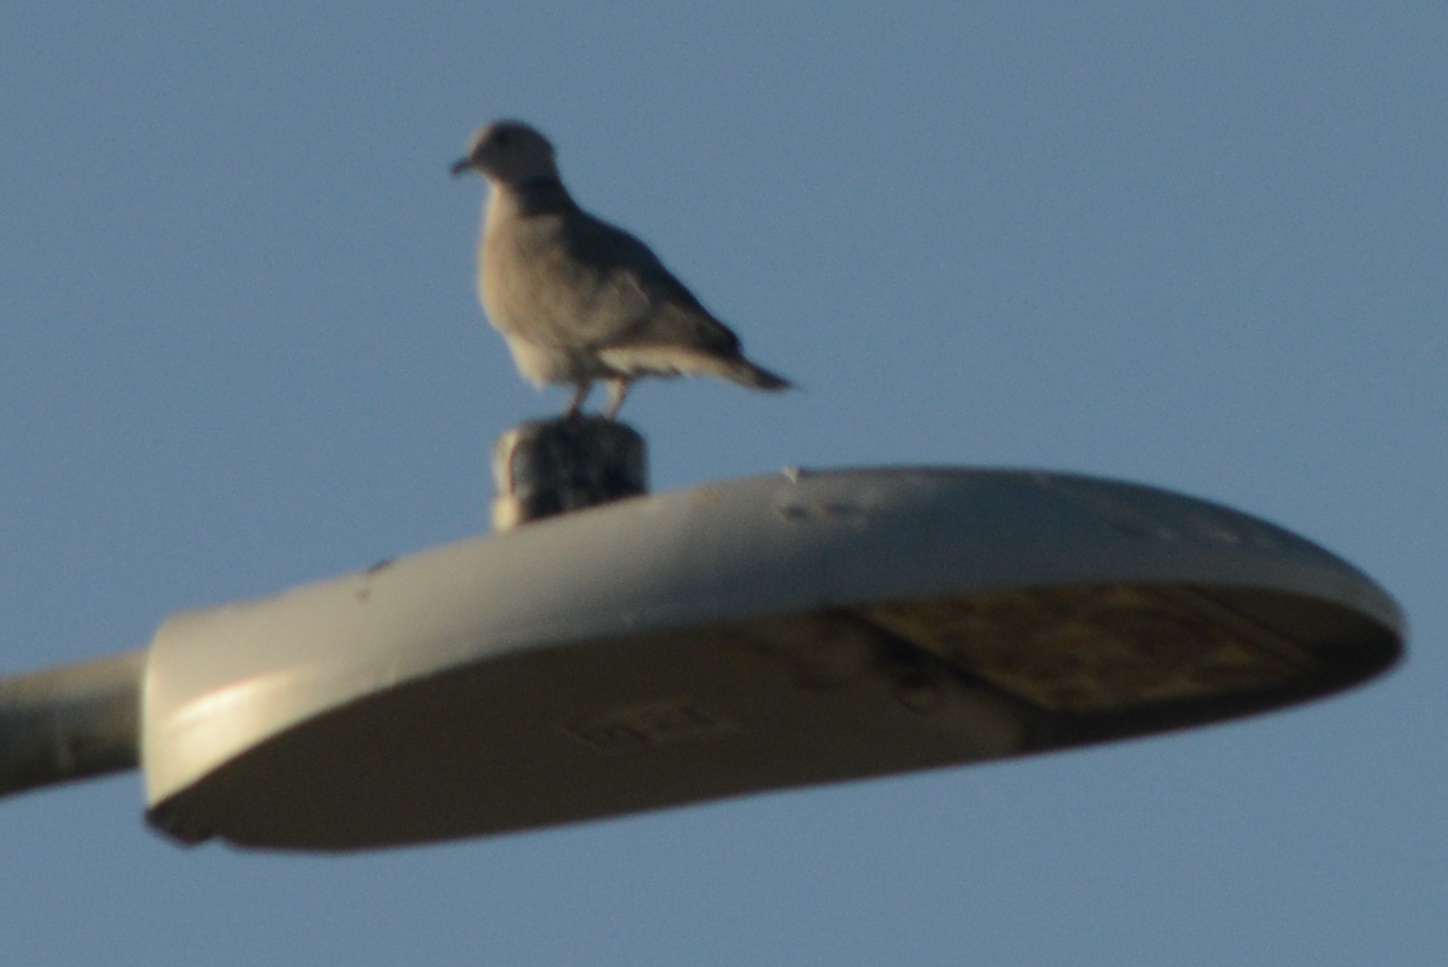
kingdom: Animalia
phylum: Chordata
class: Aves
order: Columbiformes
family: Columbidae
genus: Streptopelia
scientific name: Streptopelia decaocto
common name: Eurasian collared dove
